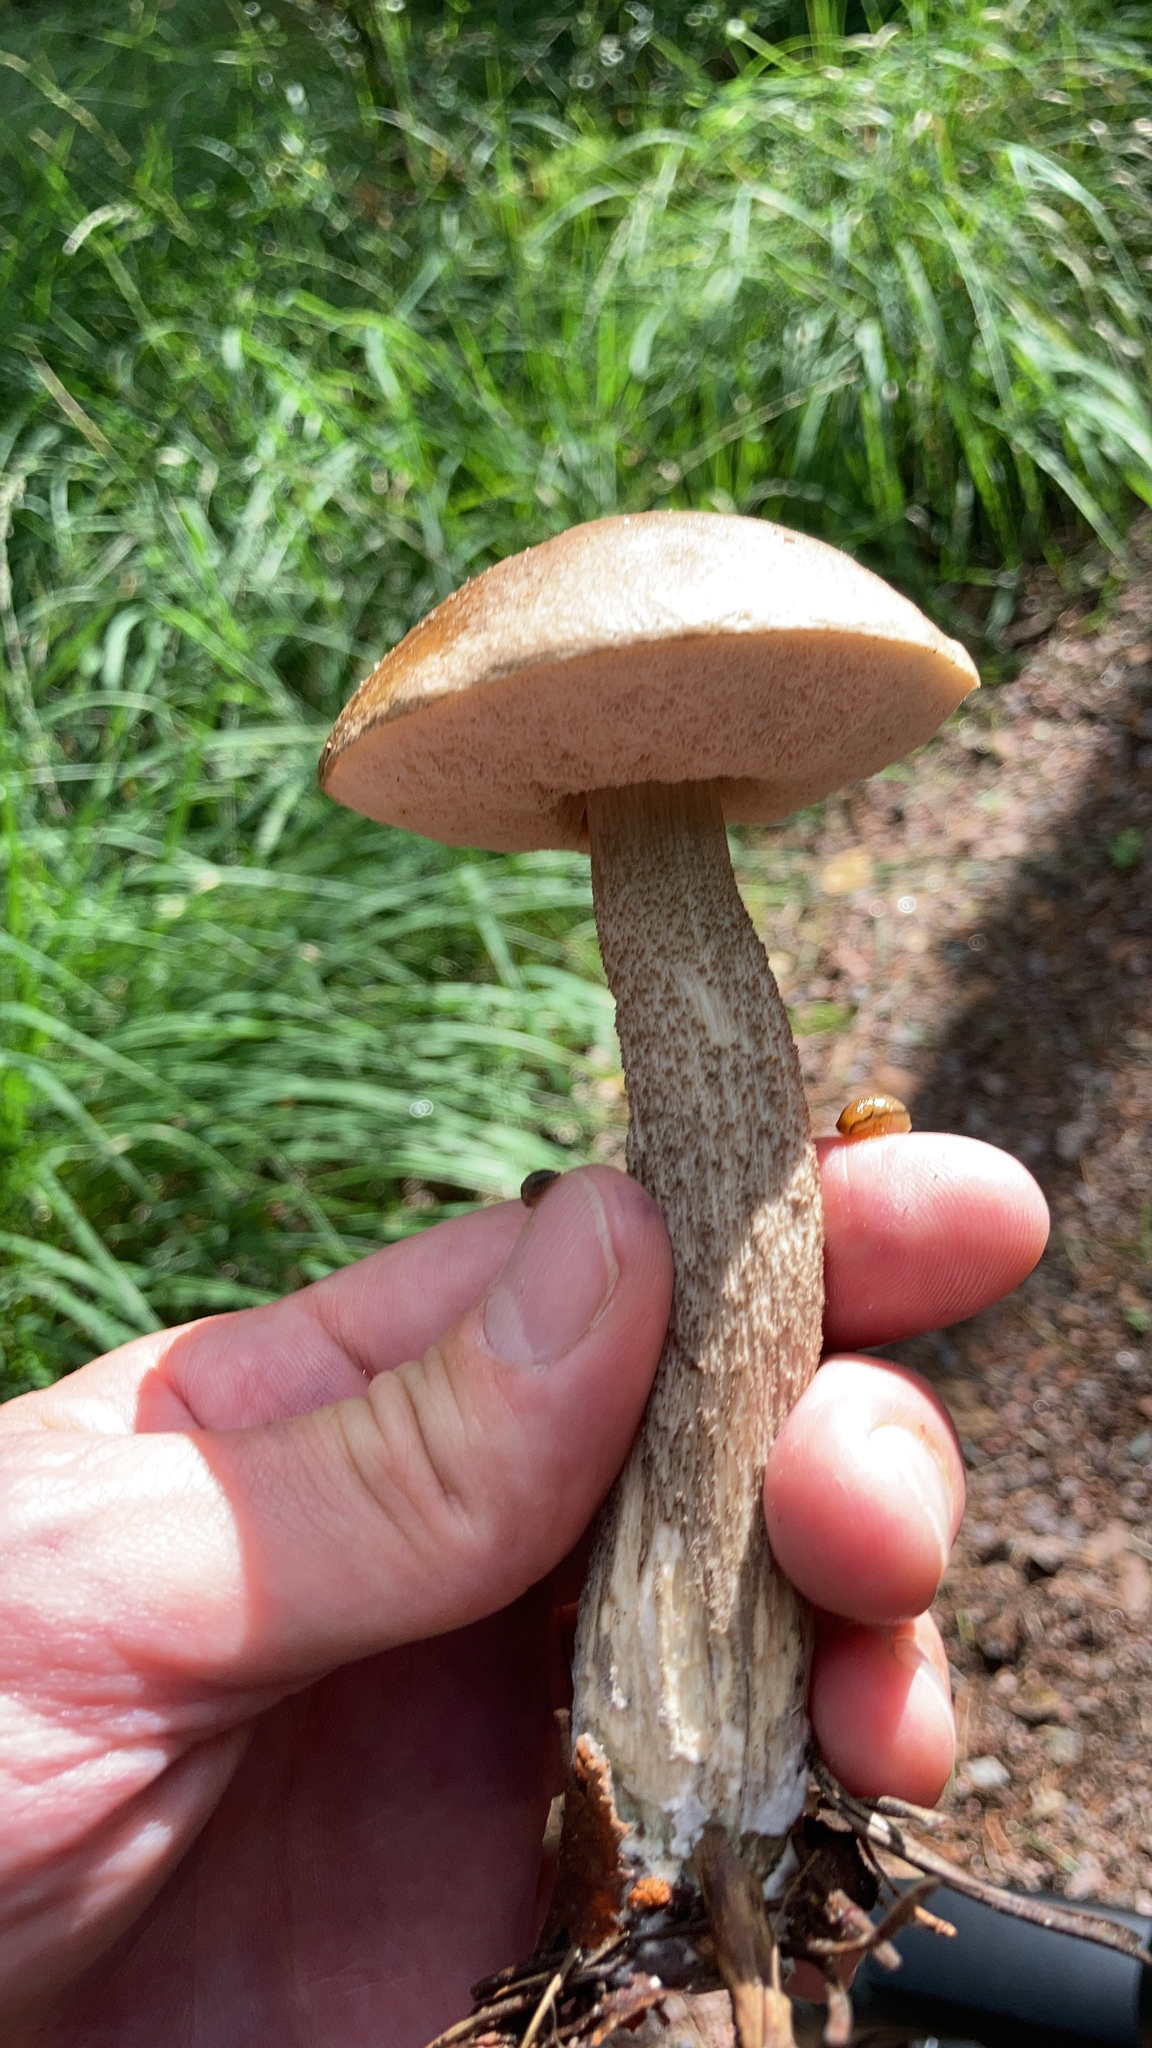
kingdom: Fungi
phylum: Basidiomycota
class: Agaricomycetes
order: Boletales
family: Boletaceae
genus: Leccinum
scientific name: Leccinum scabrum
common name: Blushing bolete
